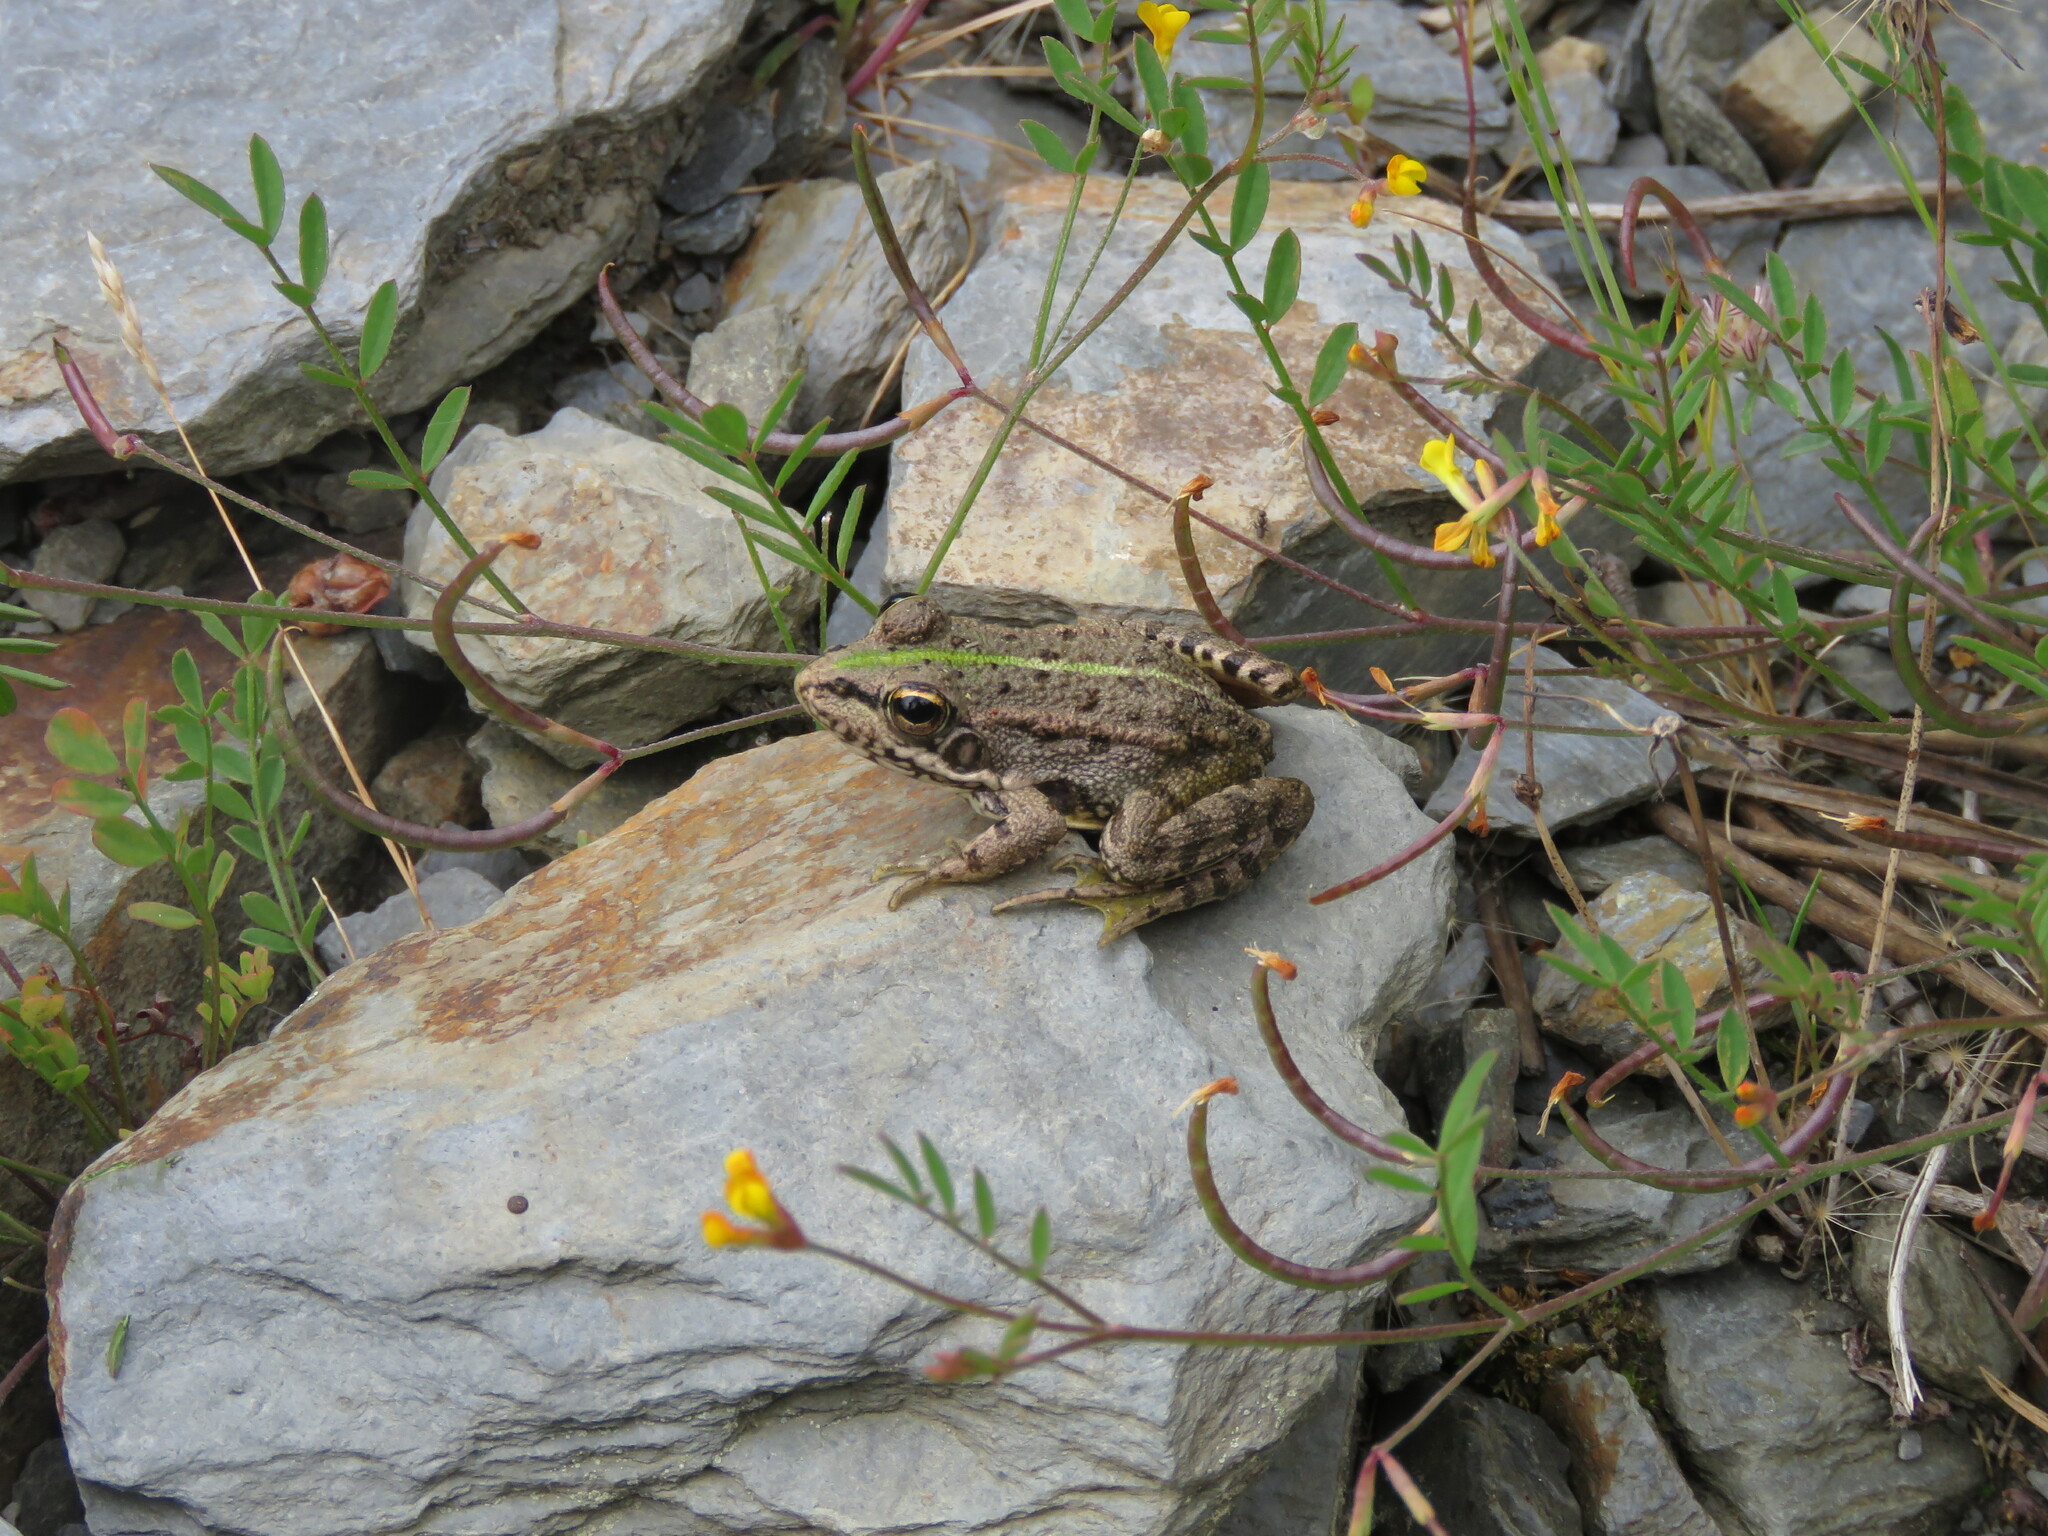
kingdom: Animalia
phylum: Chordata
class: Amphibia
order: Anura
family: Ranidae
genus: Pelophylax
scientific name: Pelophylax perezi
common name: Perez's frog
